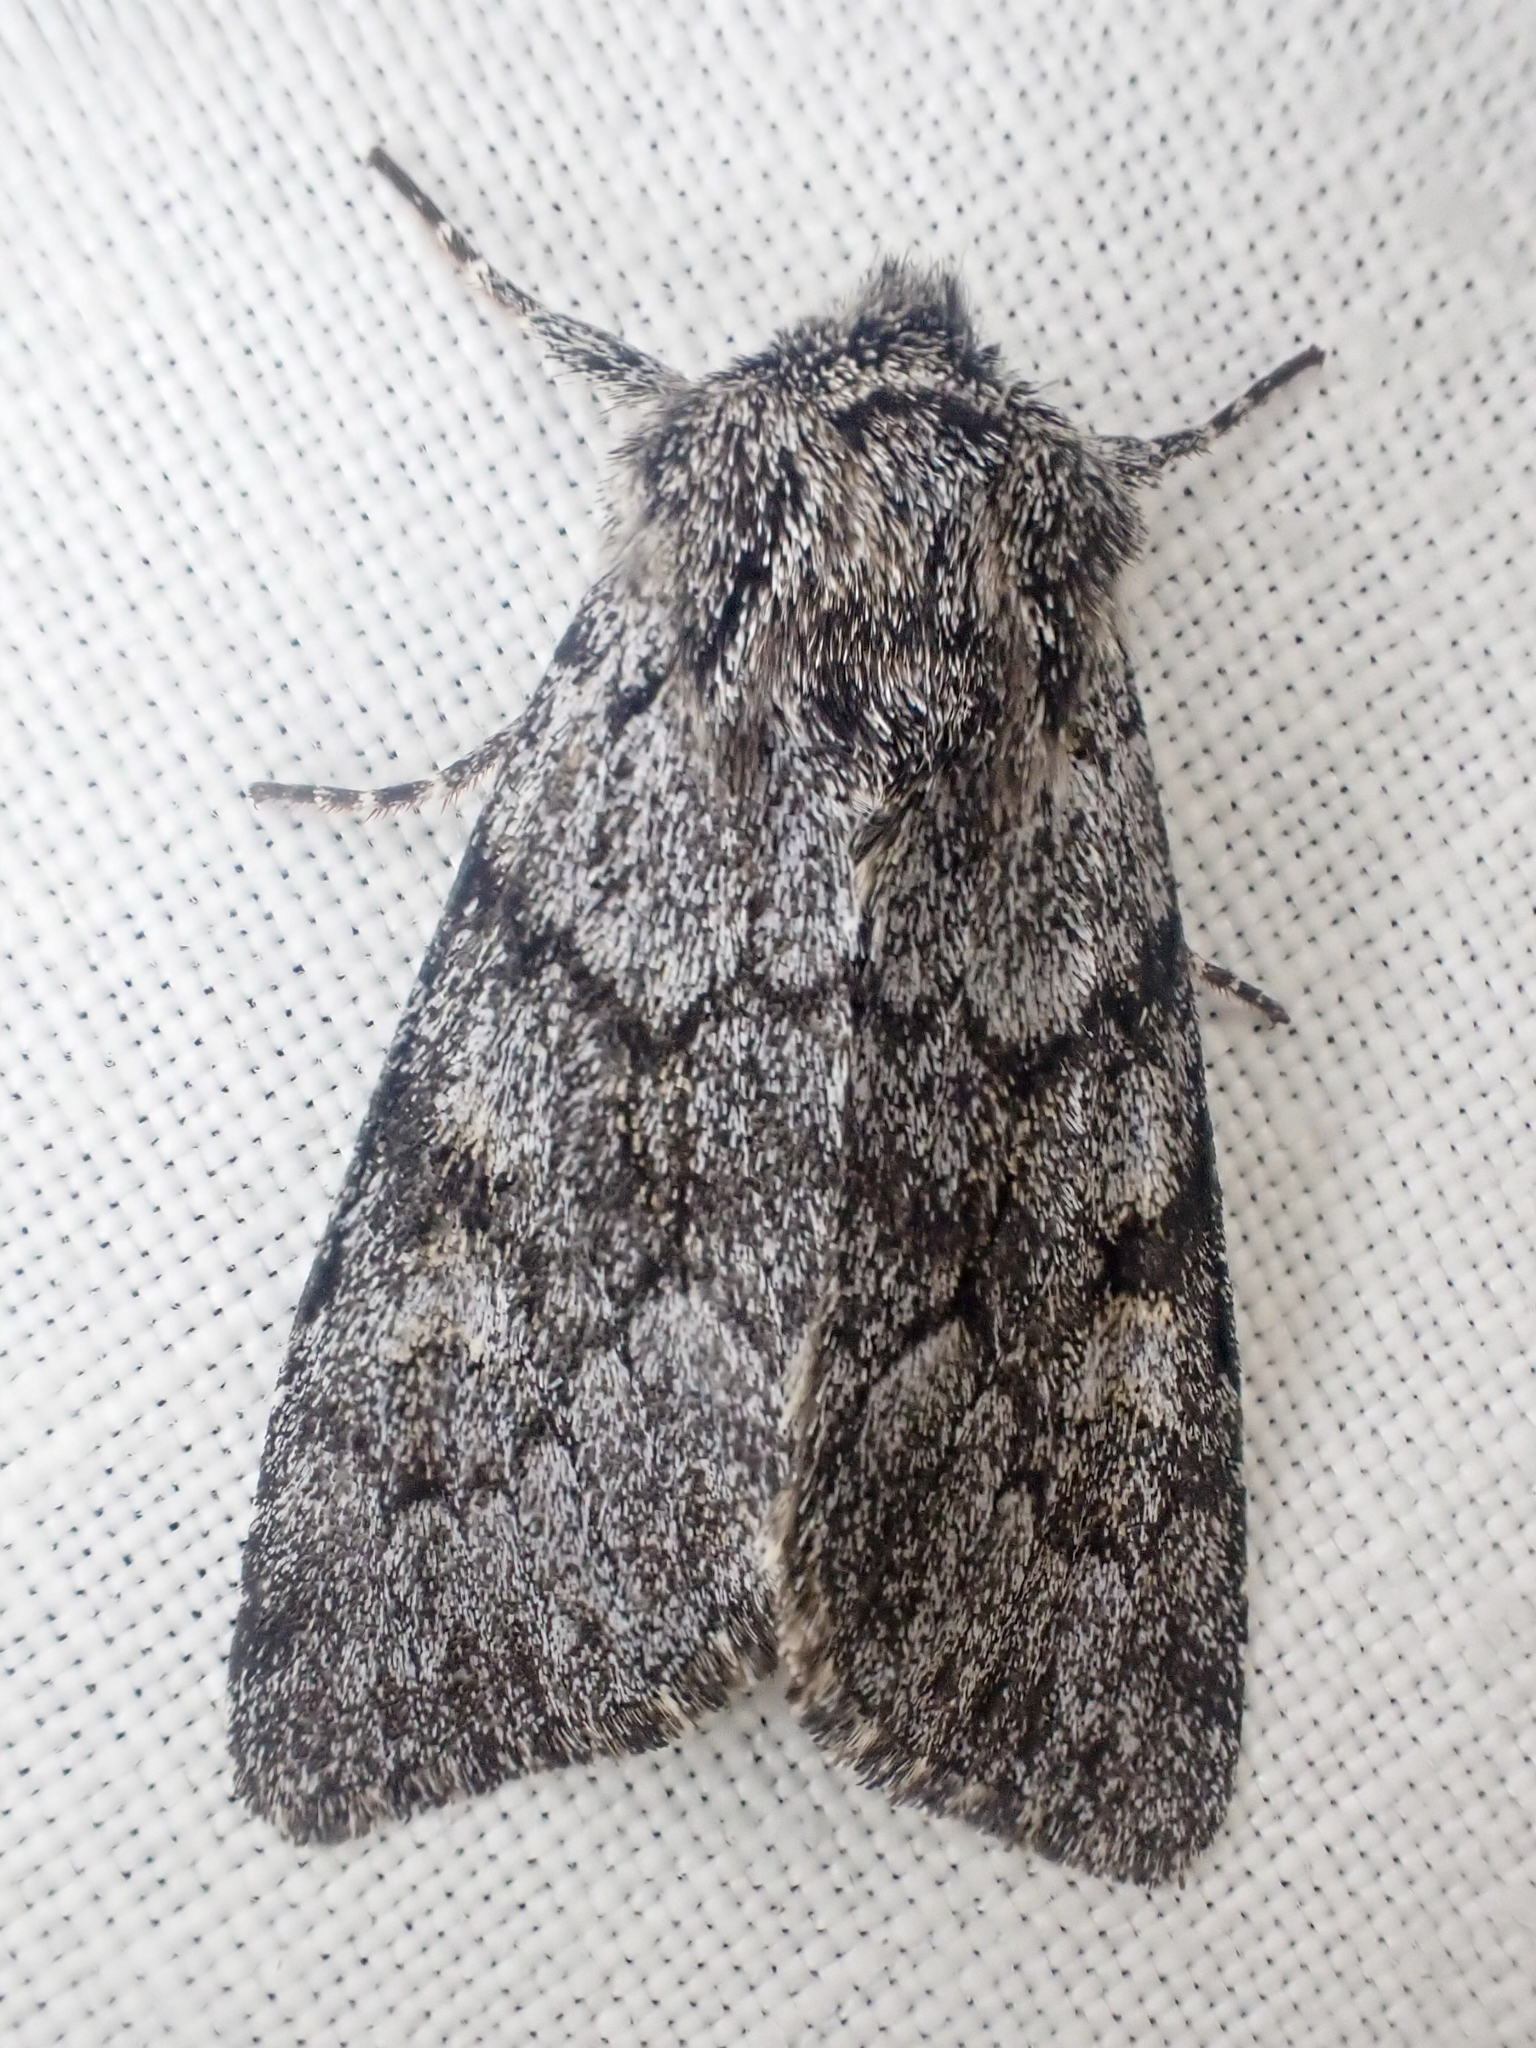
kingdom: Animalia
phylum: Arthropoda
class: Insecta
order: Lepidoptera
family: Noctuidae
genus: Lasionycta
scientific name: Lasionycta fergusoni
